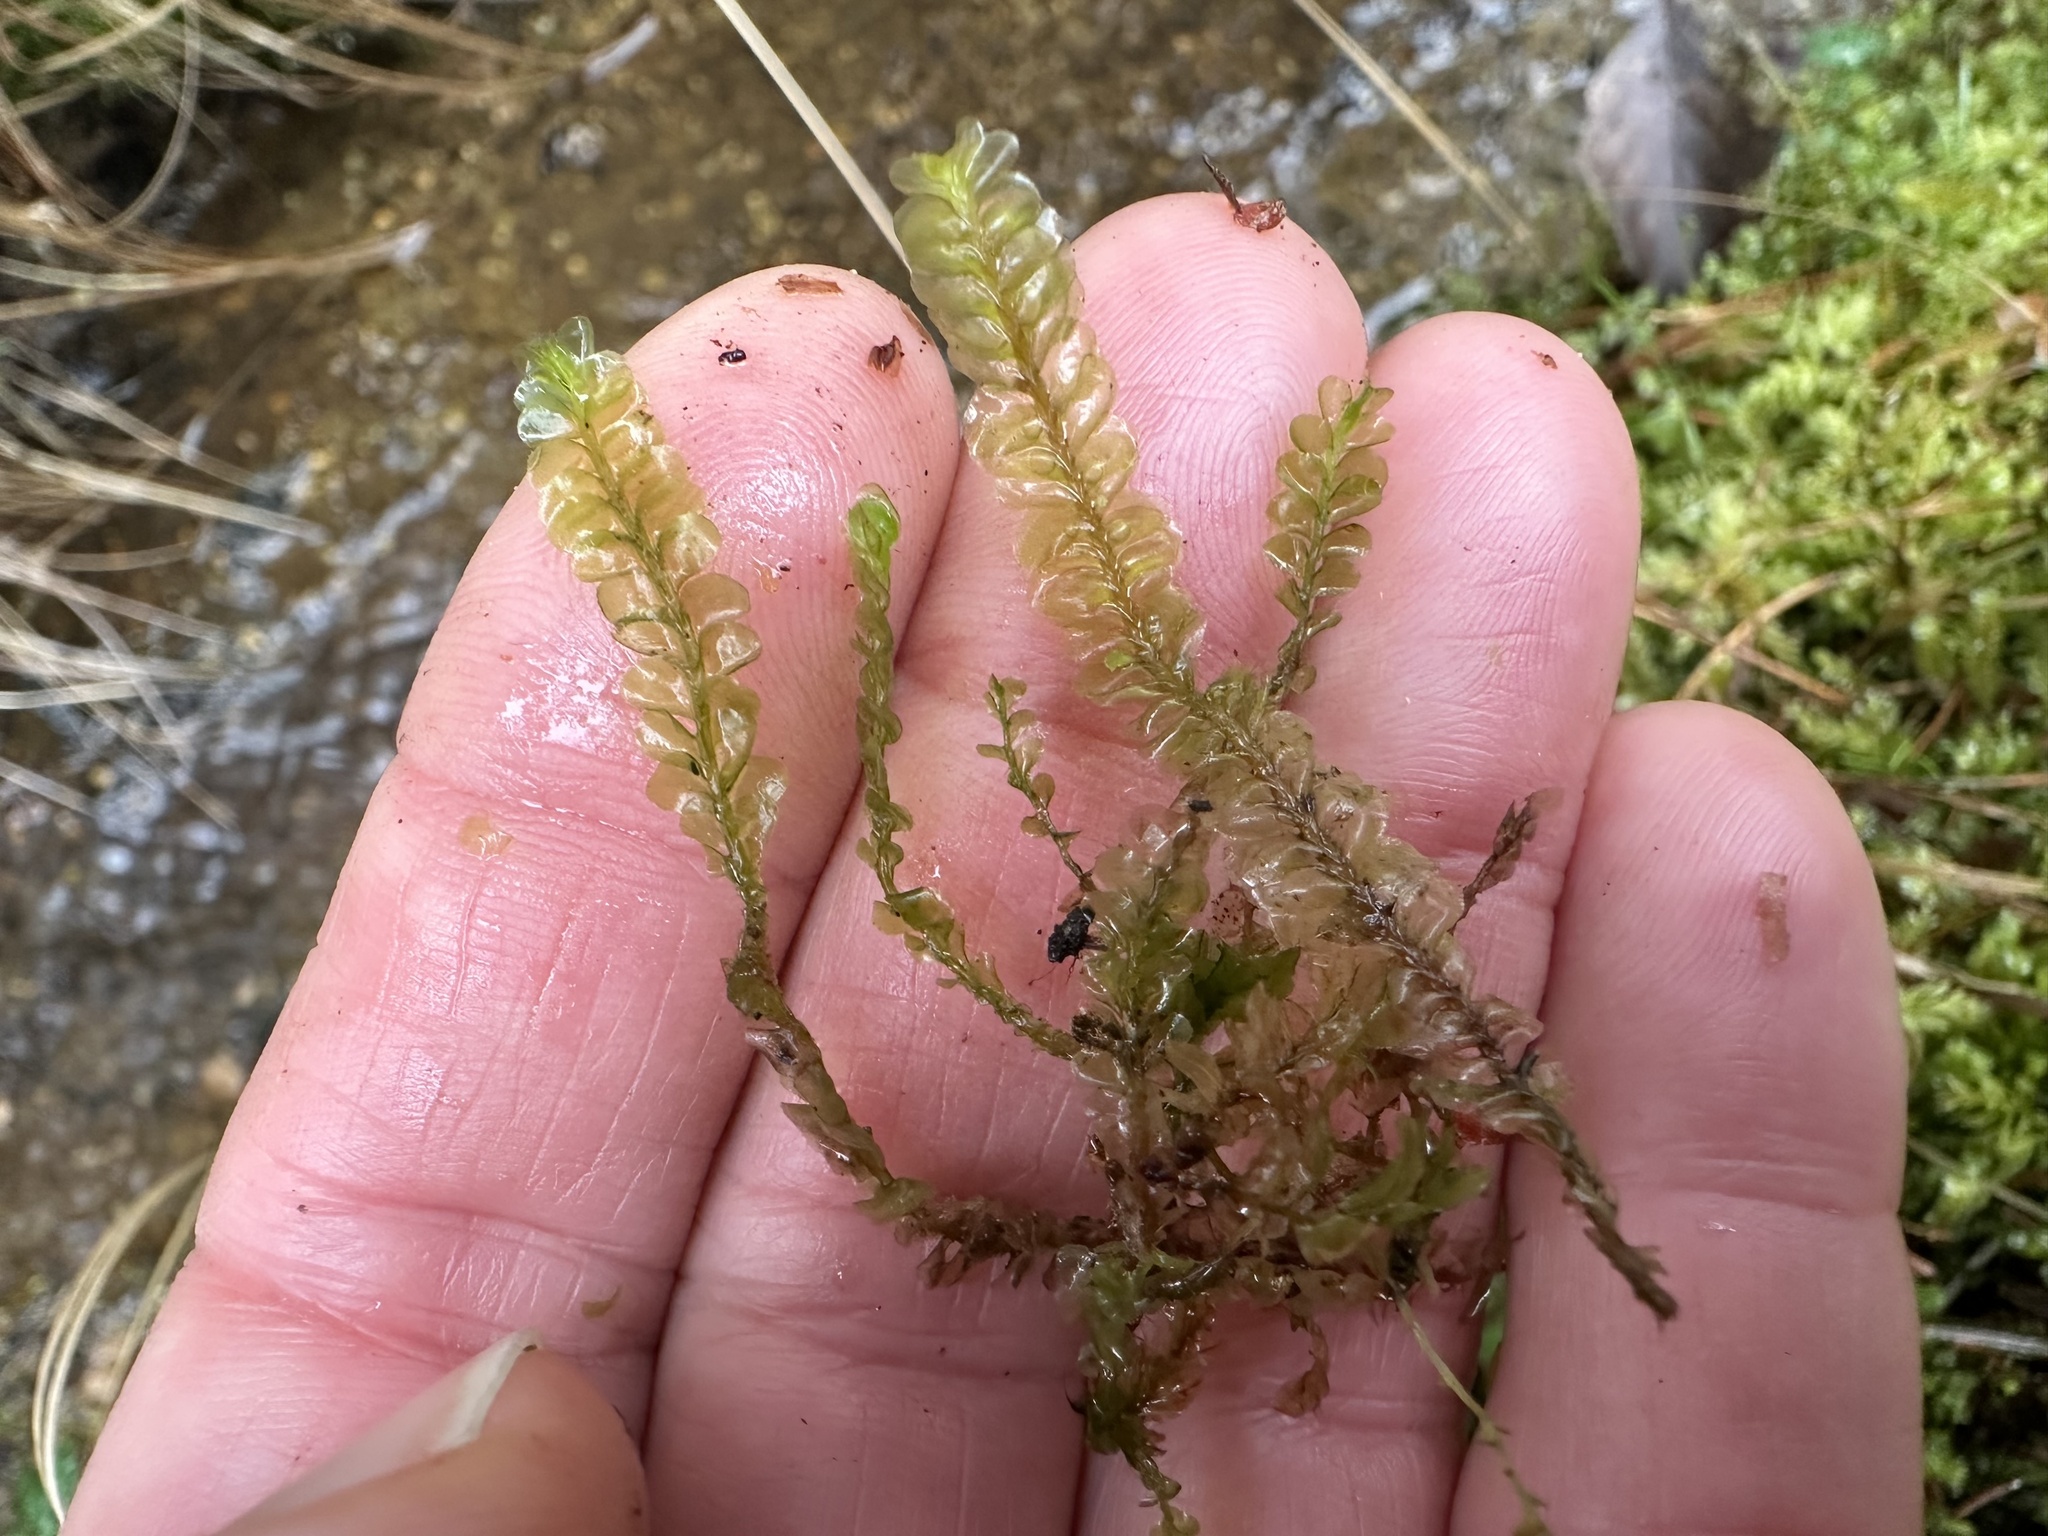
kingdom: Plantae
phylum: Marchantiophyta
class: Jungermanniopsida
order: Jungermanniales
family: Plagiochilaceae
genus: Plagiochila
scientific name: Plagiochila asplenioides
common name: Greater featherwort
